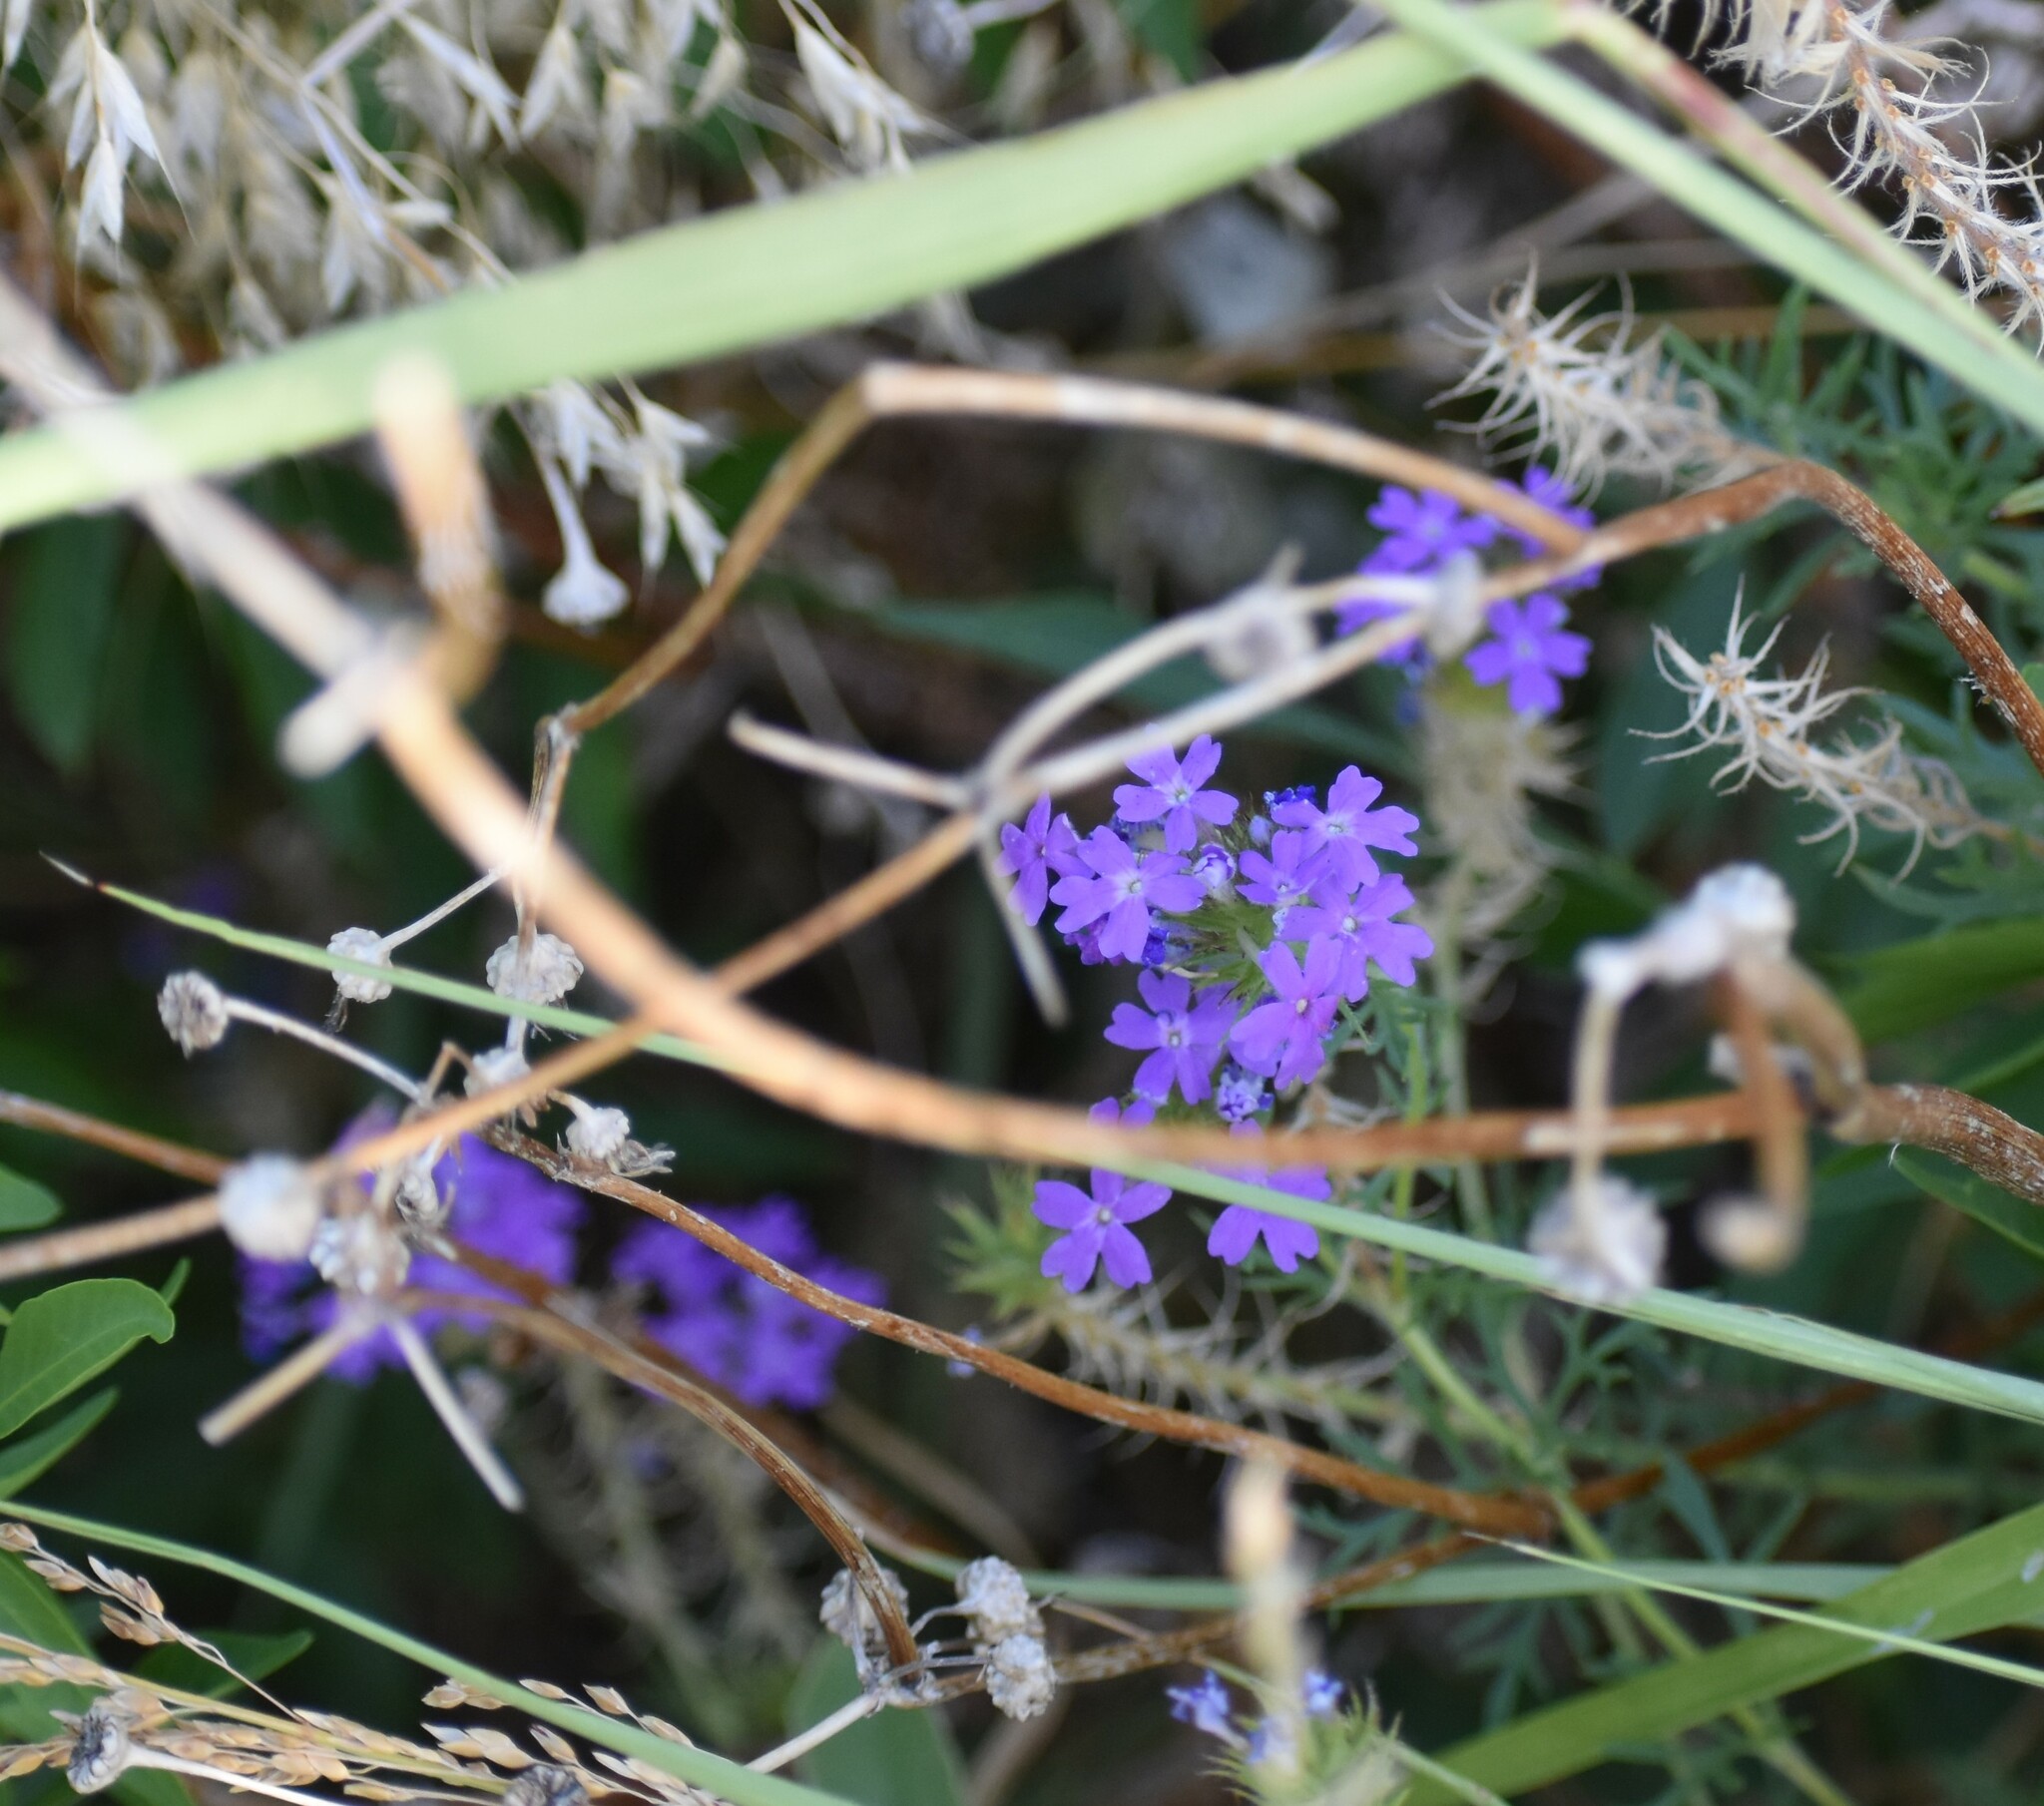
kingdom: Plantae
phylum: Tracheophyta
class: Magnoliopsida
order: Lamiales
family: Verbenaceae
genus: Verbena
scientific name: Verbena bipinnatifida
